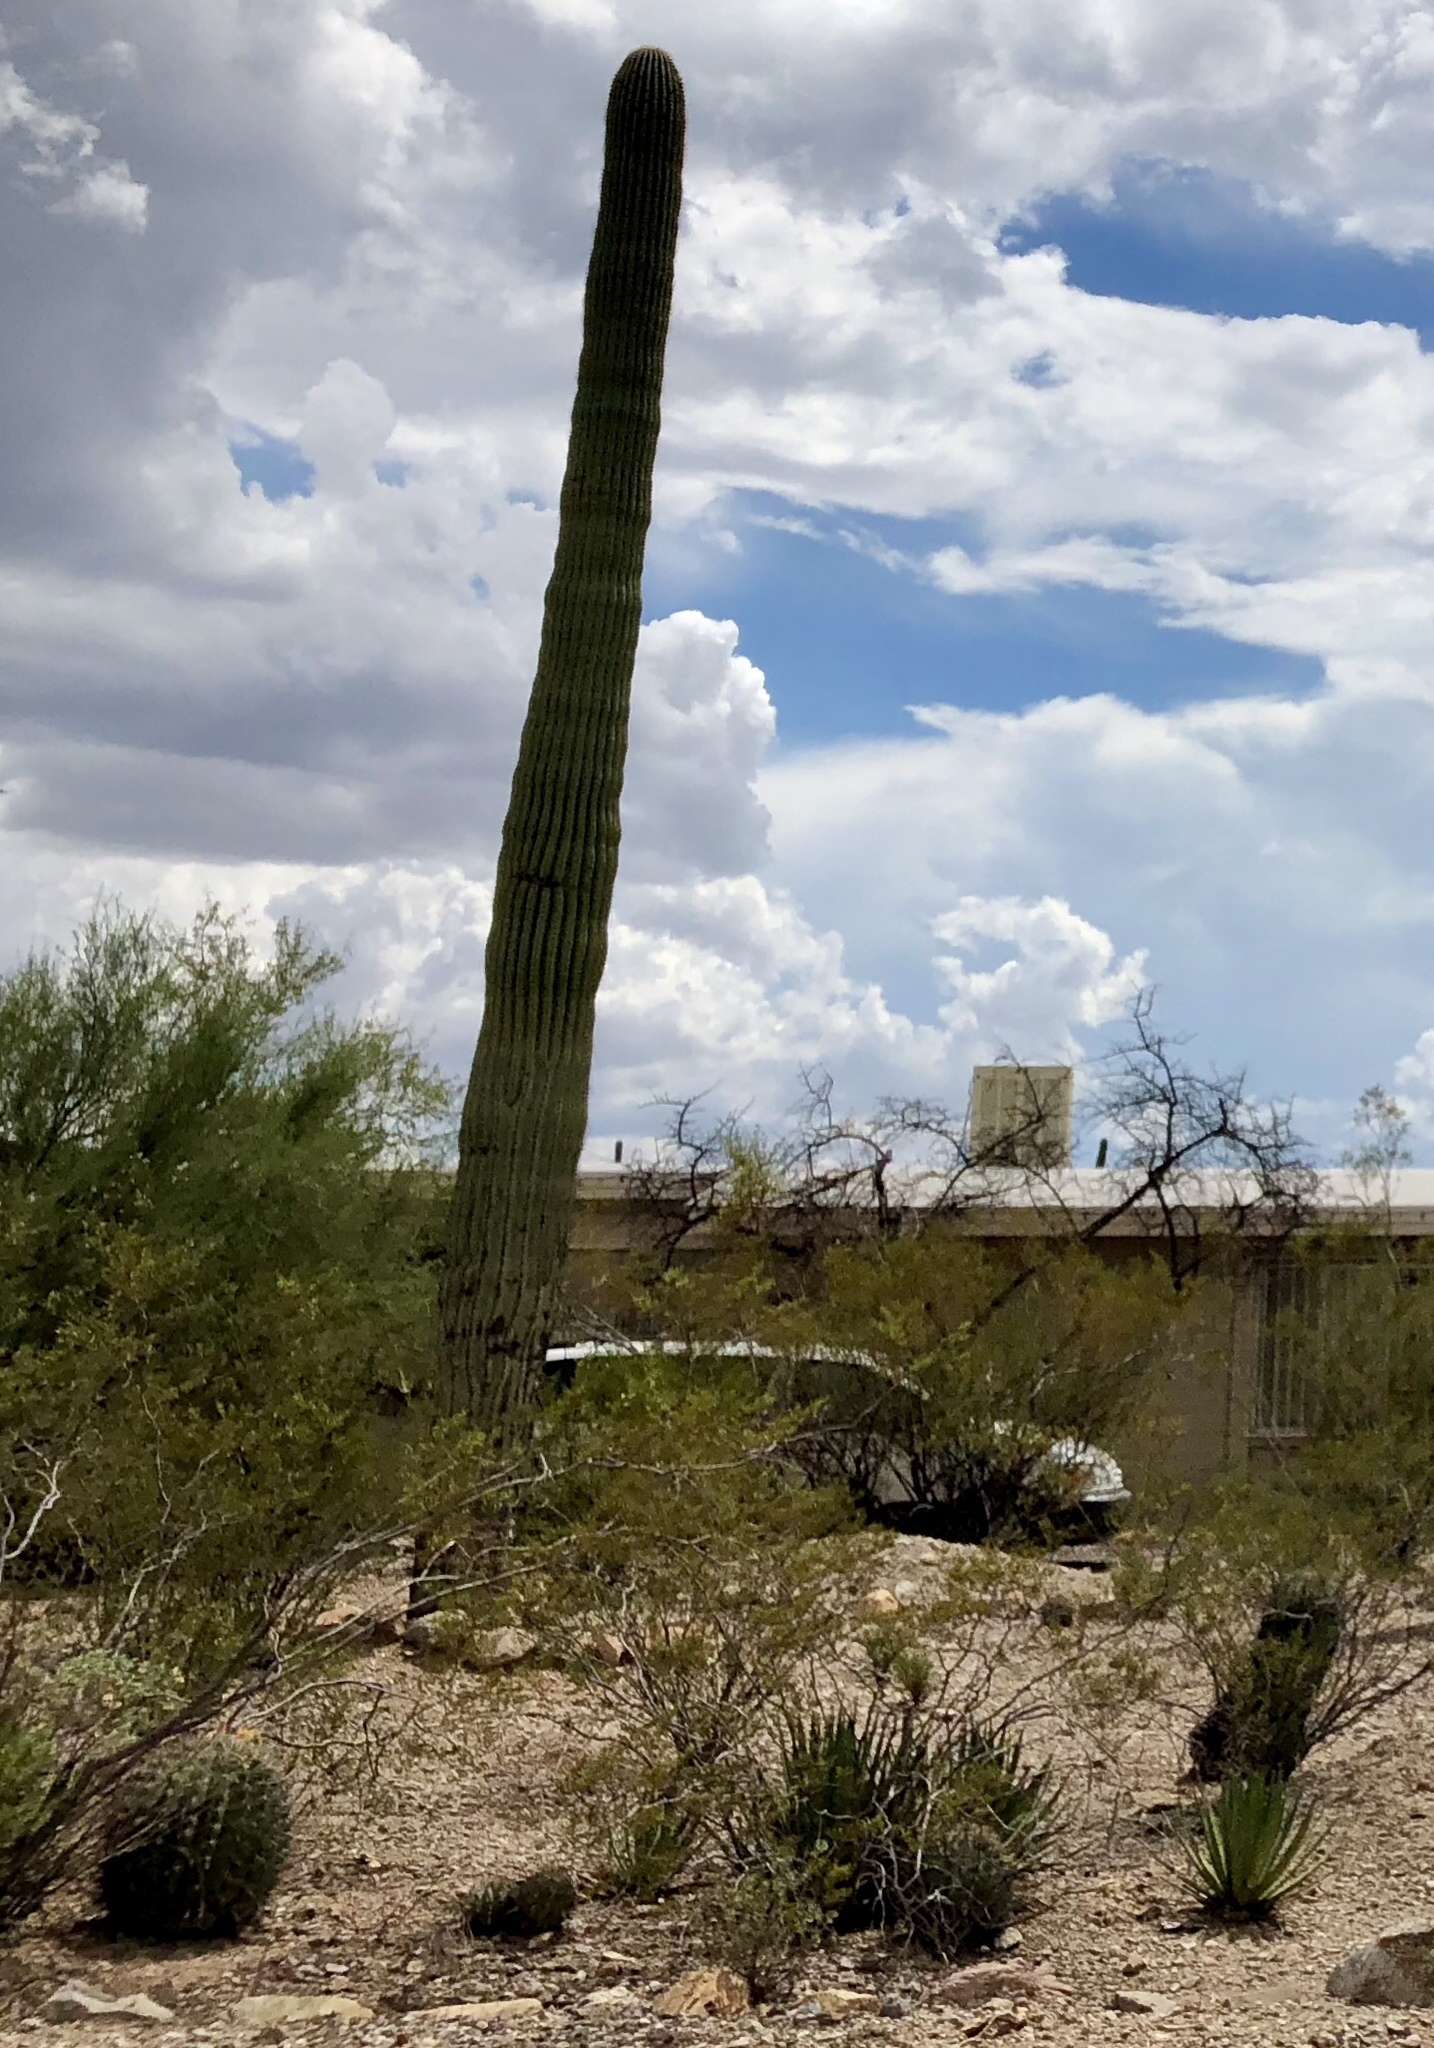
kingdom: Plantae
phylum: Tracheophyta
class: Magnoliopsida
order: Caryophyllales
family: Cactaceae
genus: Carnegiea
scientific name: Carnegiea gigantea
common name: Saguaro
